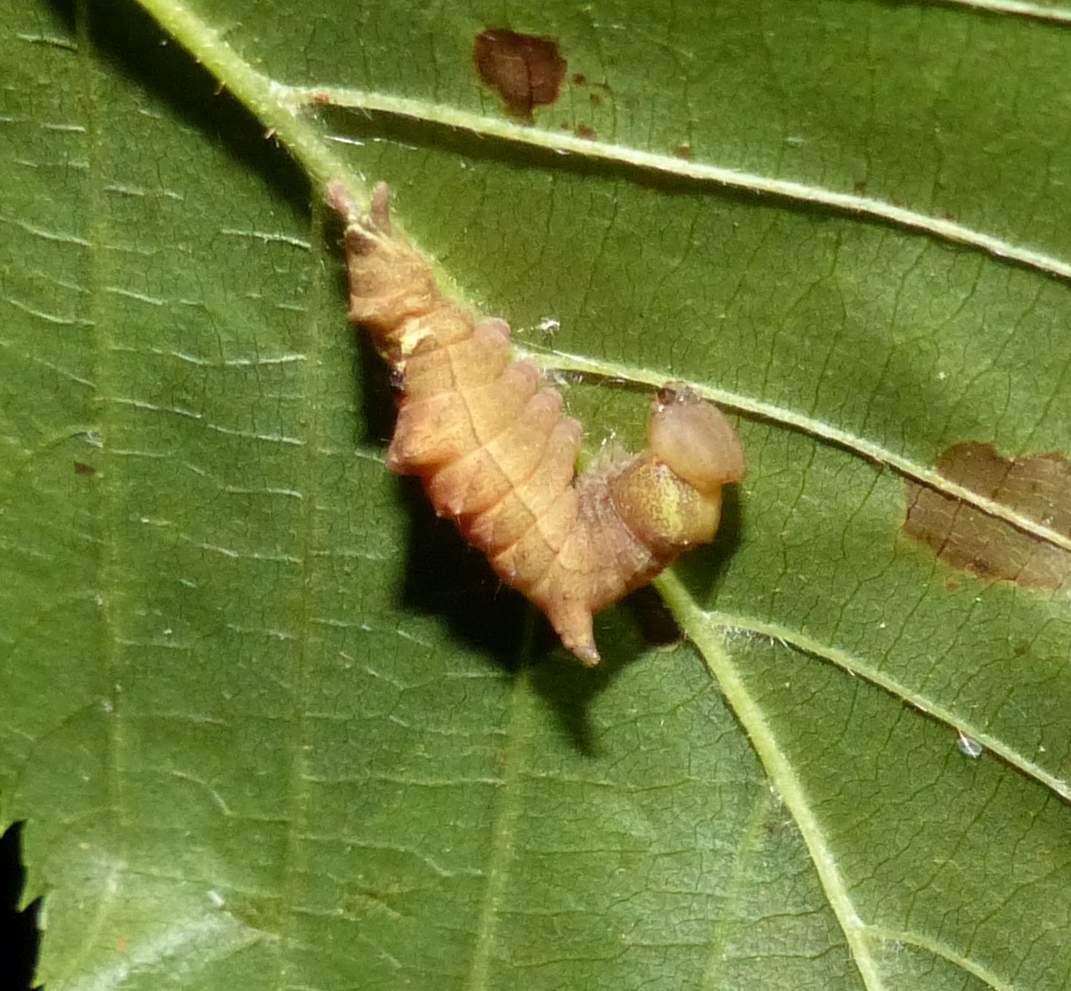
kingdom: Animalia
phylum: Arthropoda
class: Insecta
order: Lepidoptera
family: Notodontidae
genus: Schizura
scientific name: Schizura ipomaeae
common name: Morning-glory prominent
